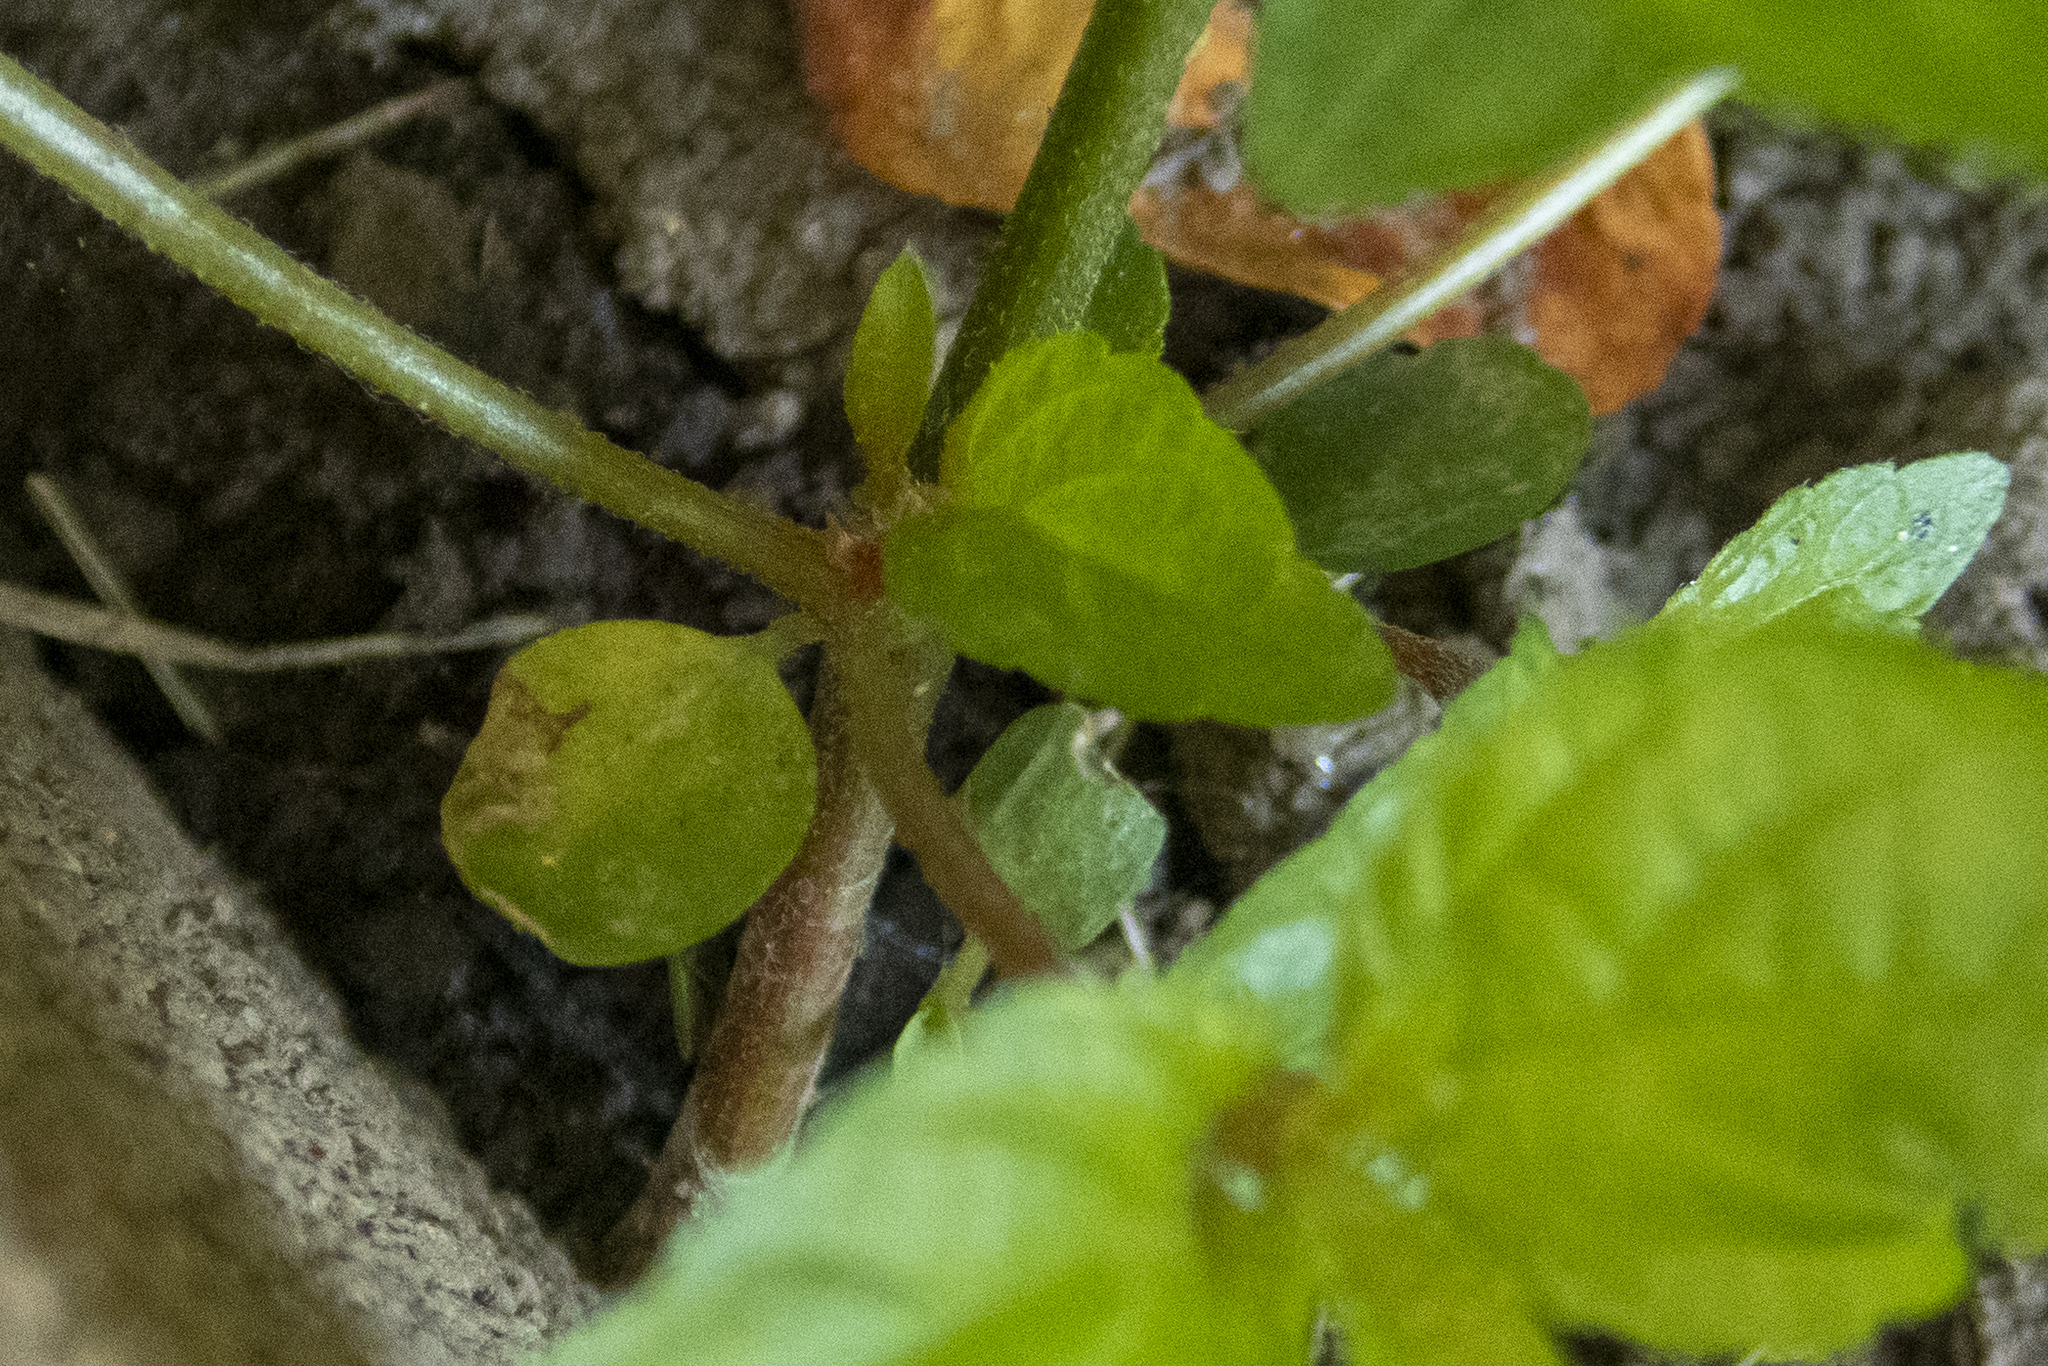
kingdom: Plantae
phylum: Tracheophyta
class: Magnoliopsida
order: Malpighiales
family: Euphorbiaceae
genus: Acalypha
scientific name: Acalypha rhomboidea
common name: Rhombic copperleaf
